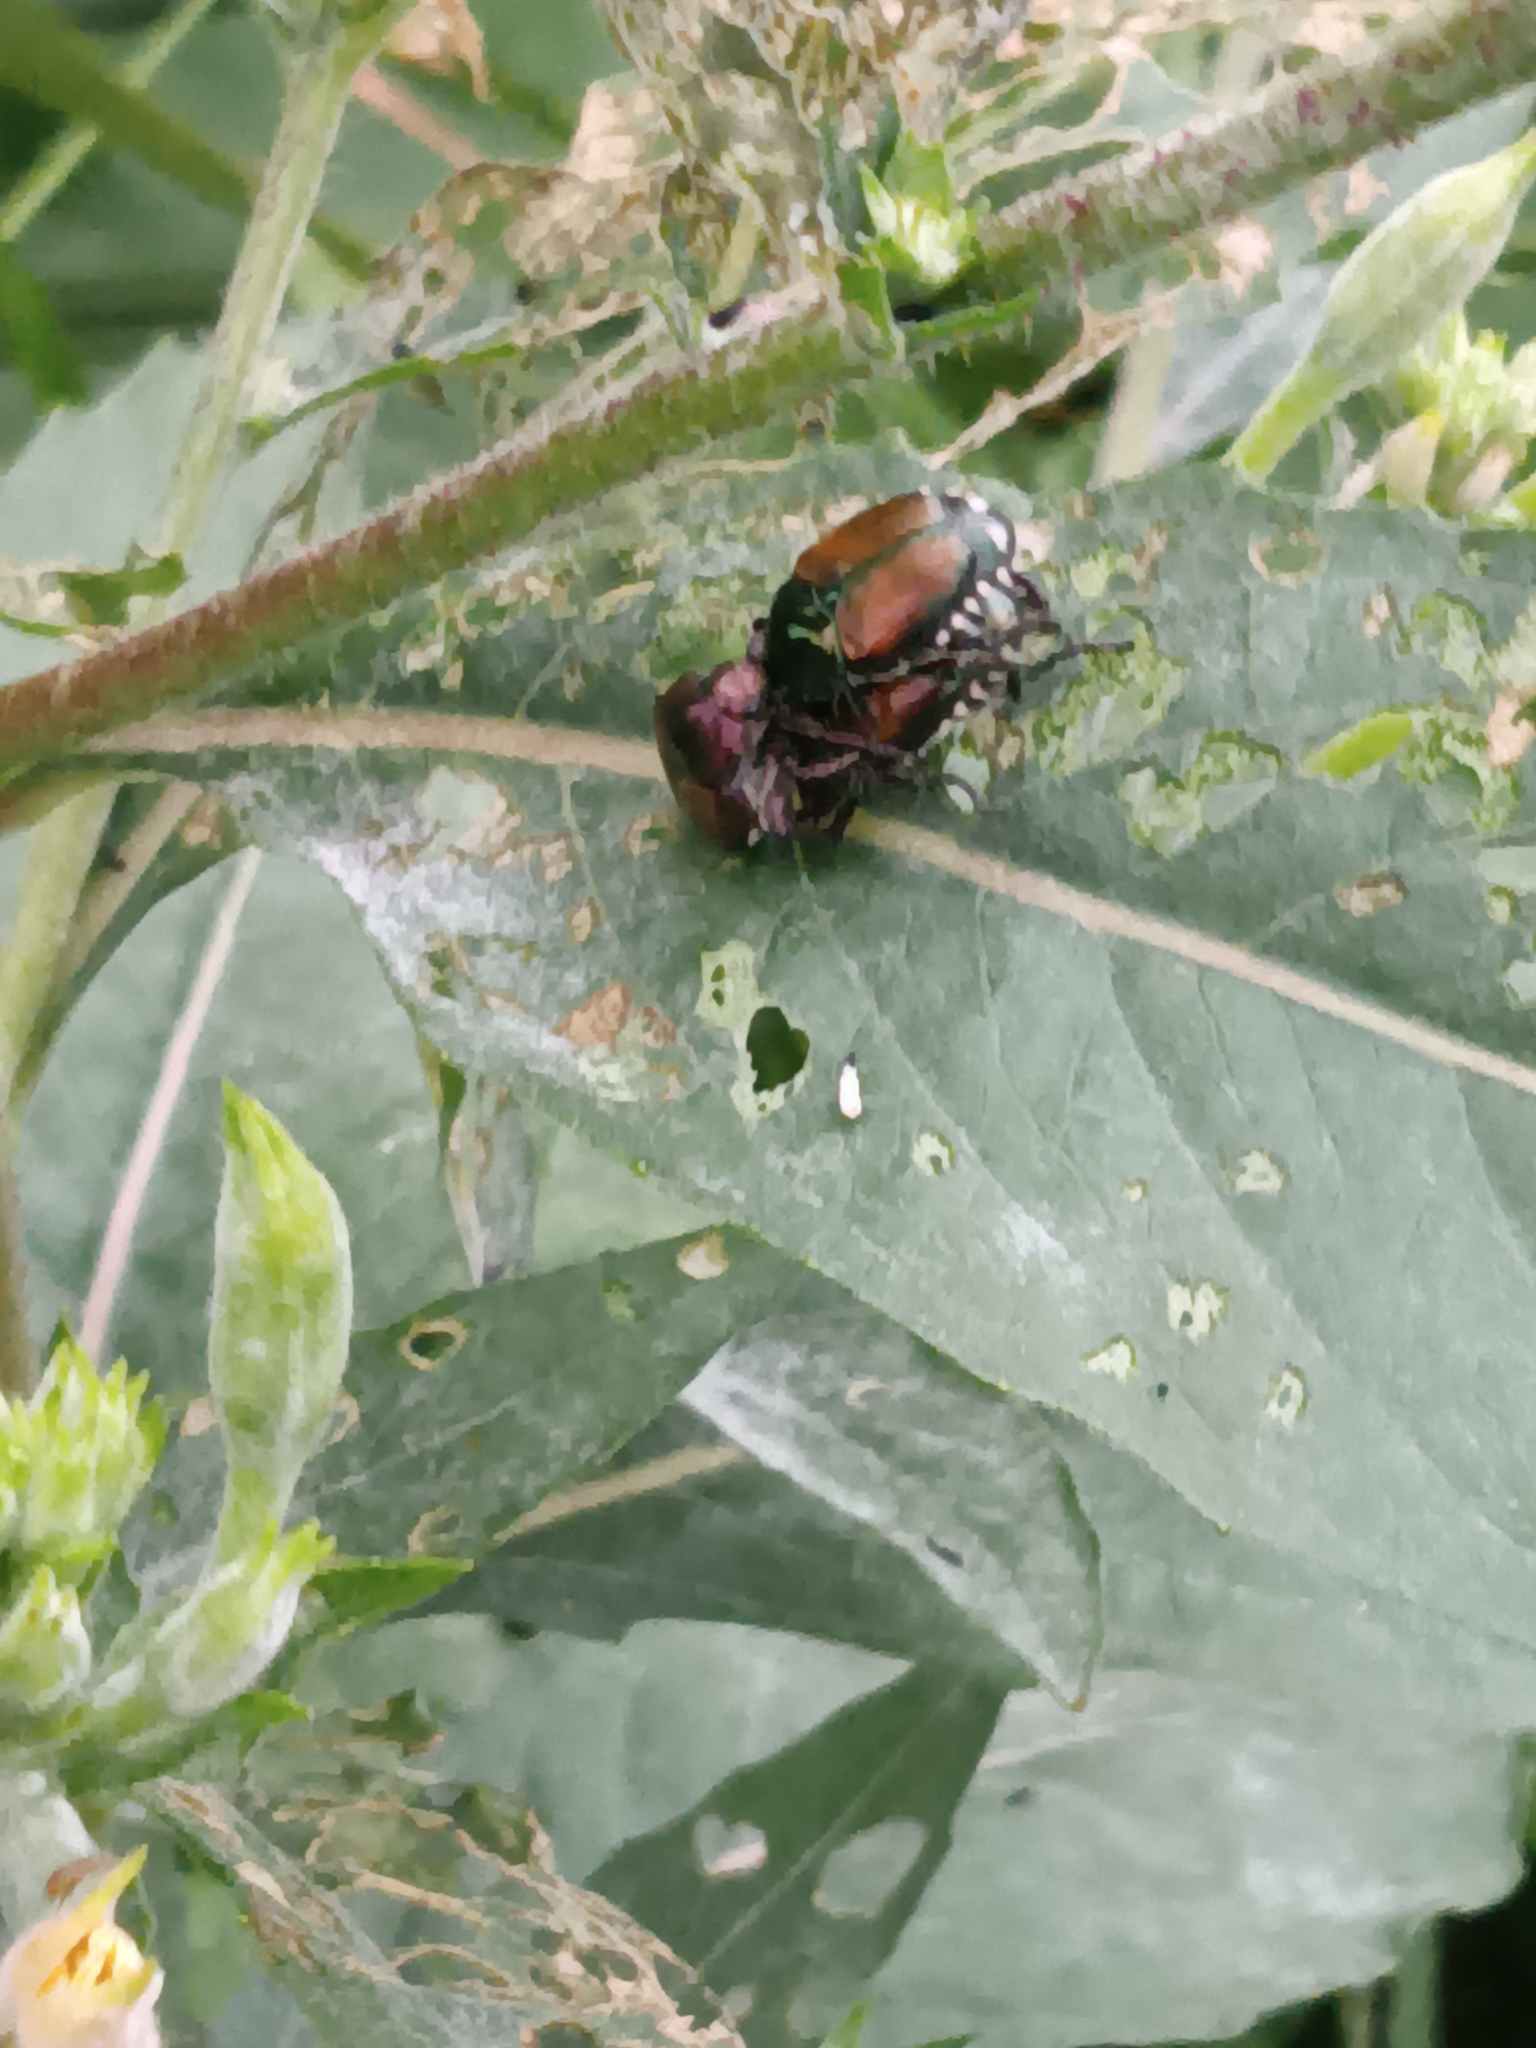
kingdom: Animalia
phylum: Arthropoda
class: Insecta
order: Coleoptera
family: Scarabaeidae
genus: Popillia
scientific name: Popillia japonica
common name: Japanese beetle
